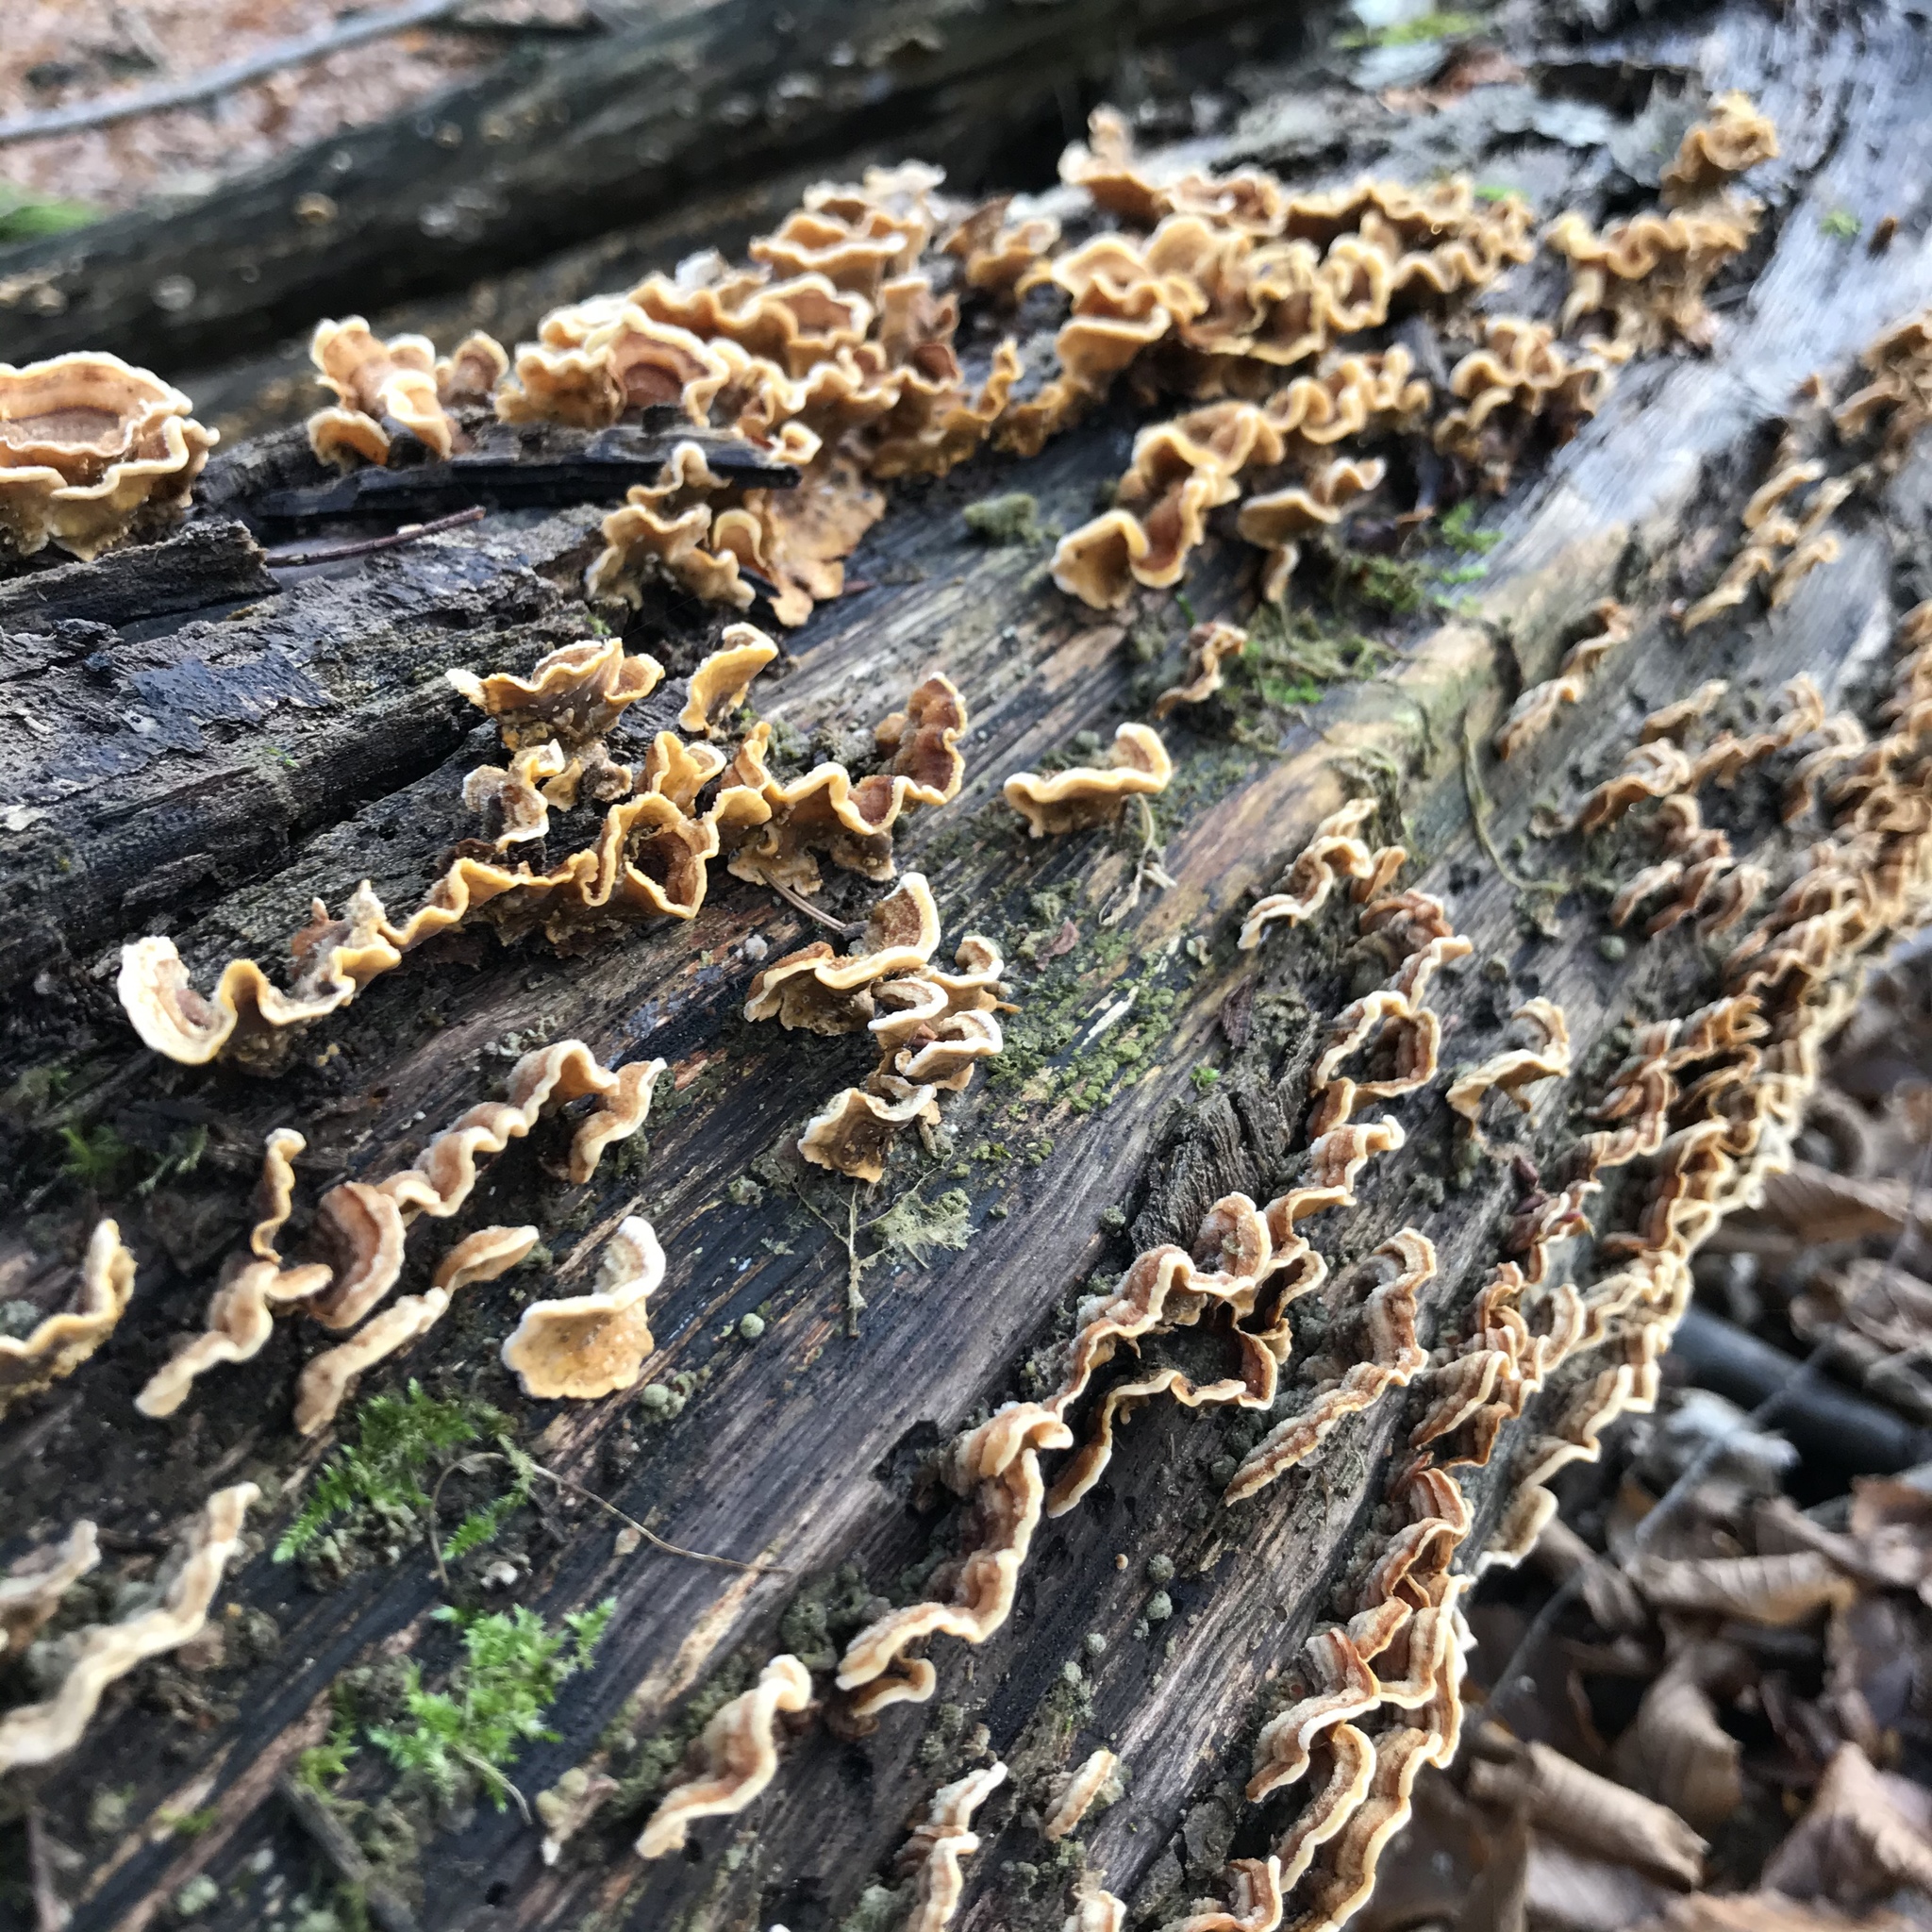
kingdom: Fungi
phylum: Basidiomycota
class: Agaricomycetes
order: Russulales
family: Stereaceae
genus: Stereum
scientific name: Stereum hirsutum
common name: Hairy curtain crust
